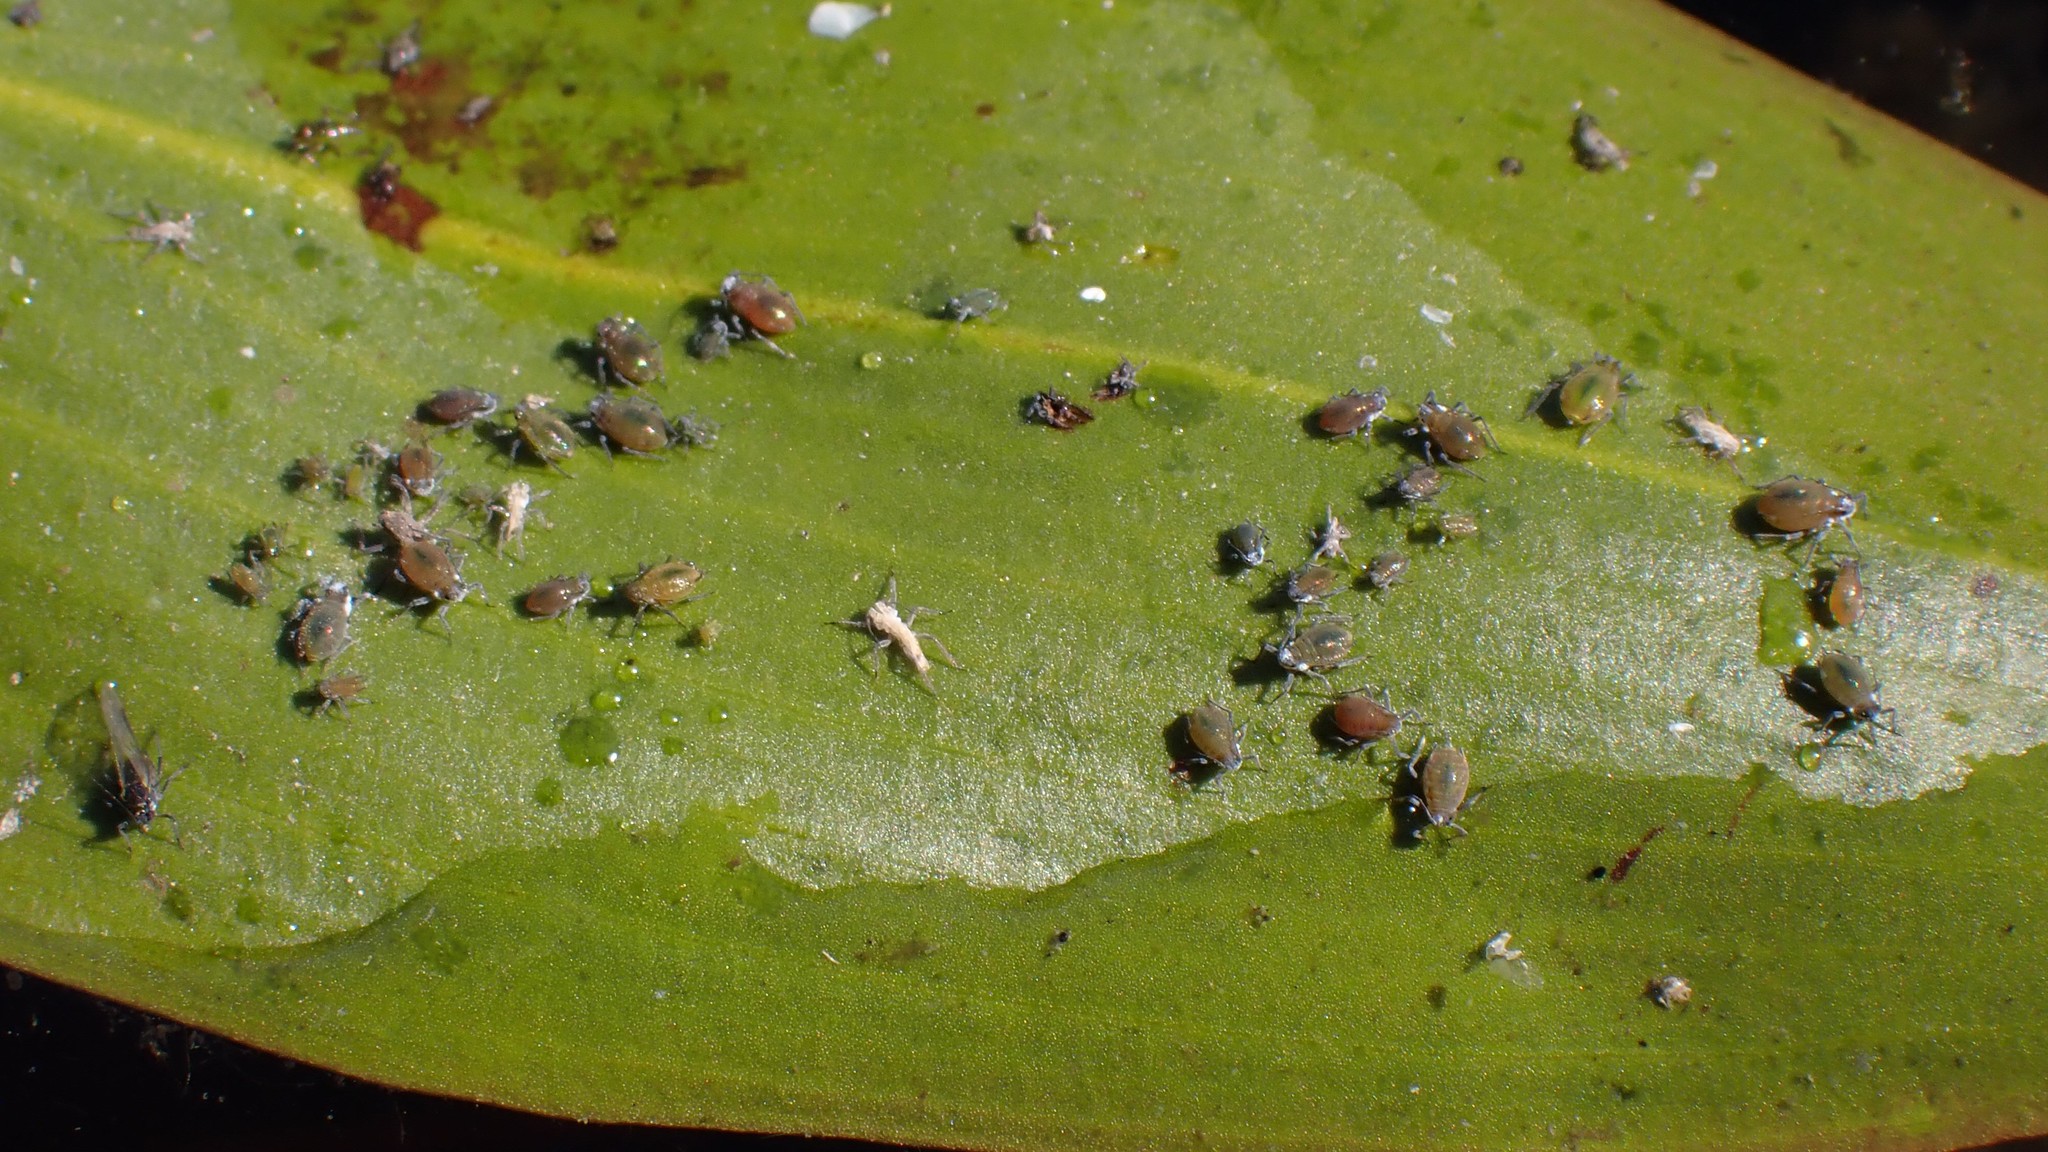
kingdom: Animalia
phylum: Arthropoda
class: Insecta
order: Hemiptera
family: Aphididae
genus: Rhopalosiphum
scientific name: Rhopalosiphum nymphaeae
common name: Water lily aphid
